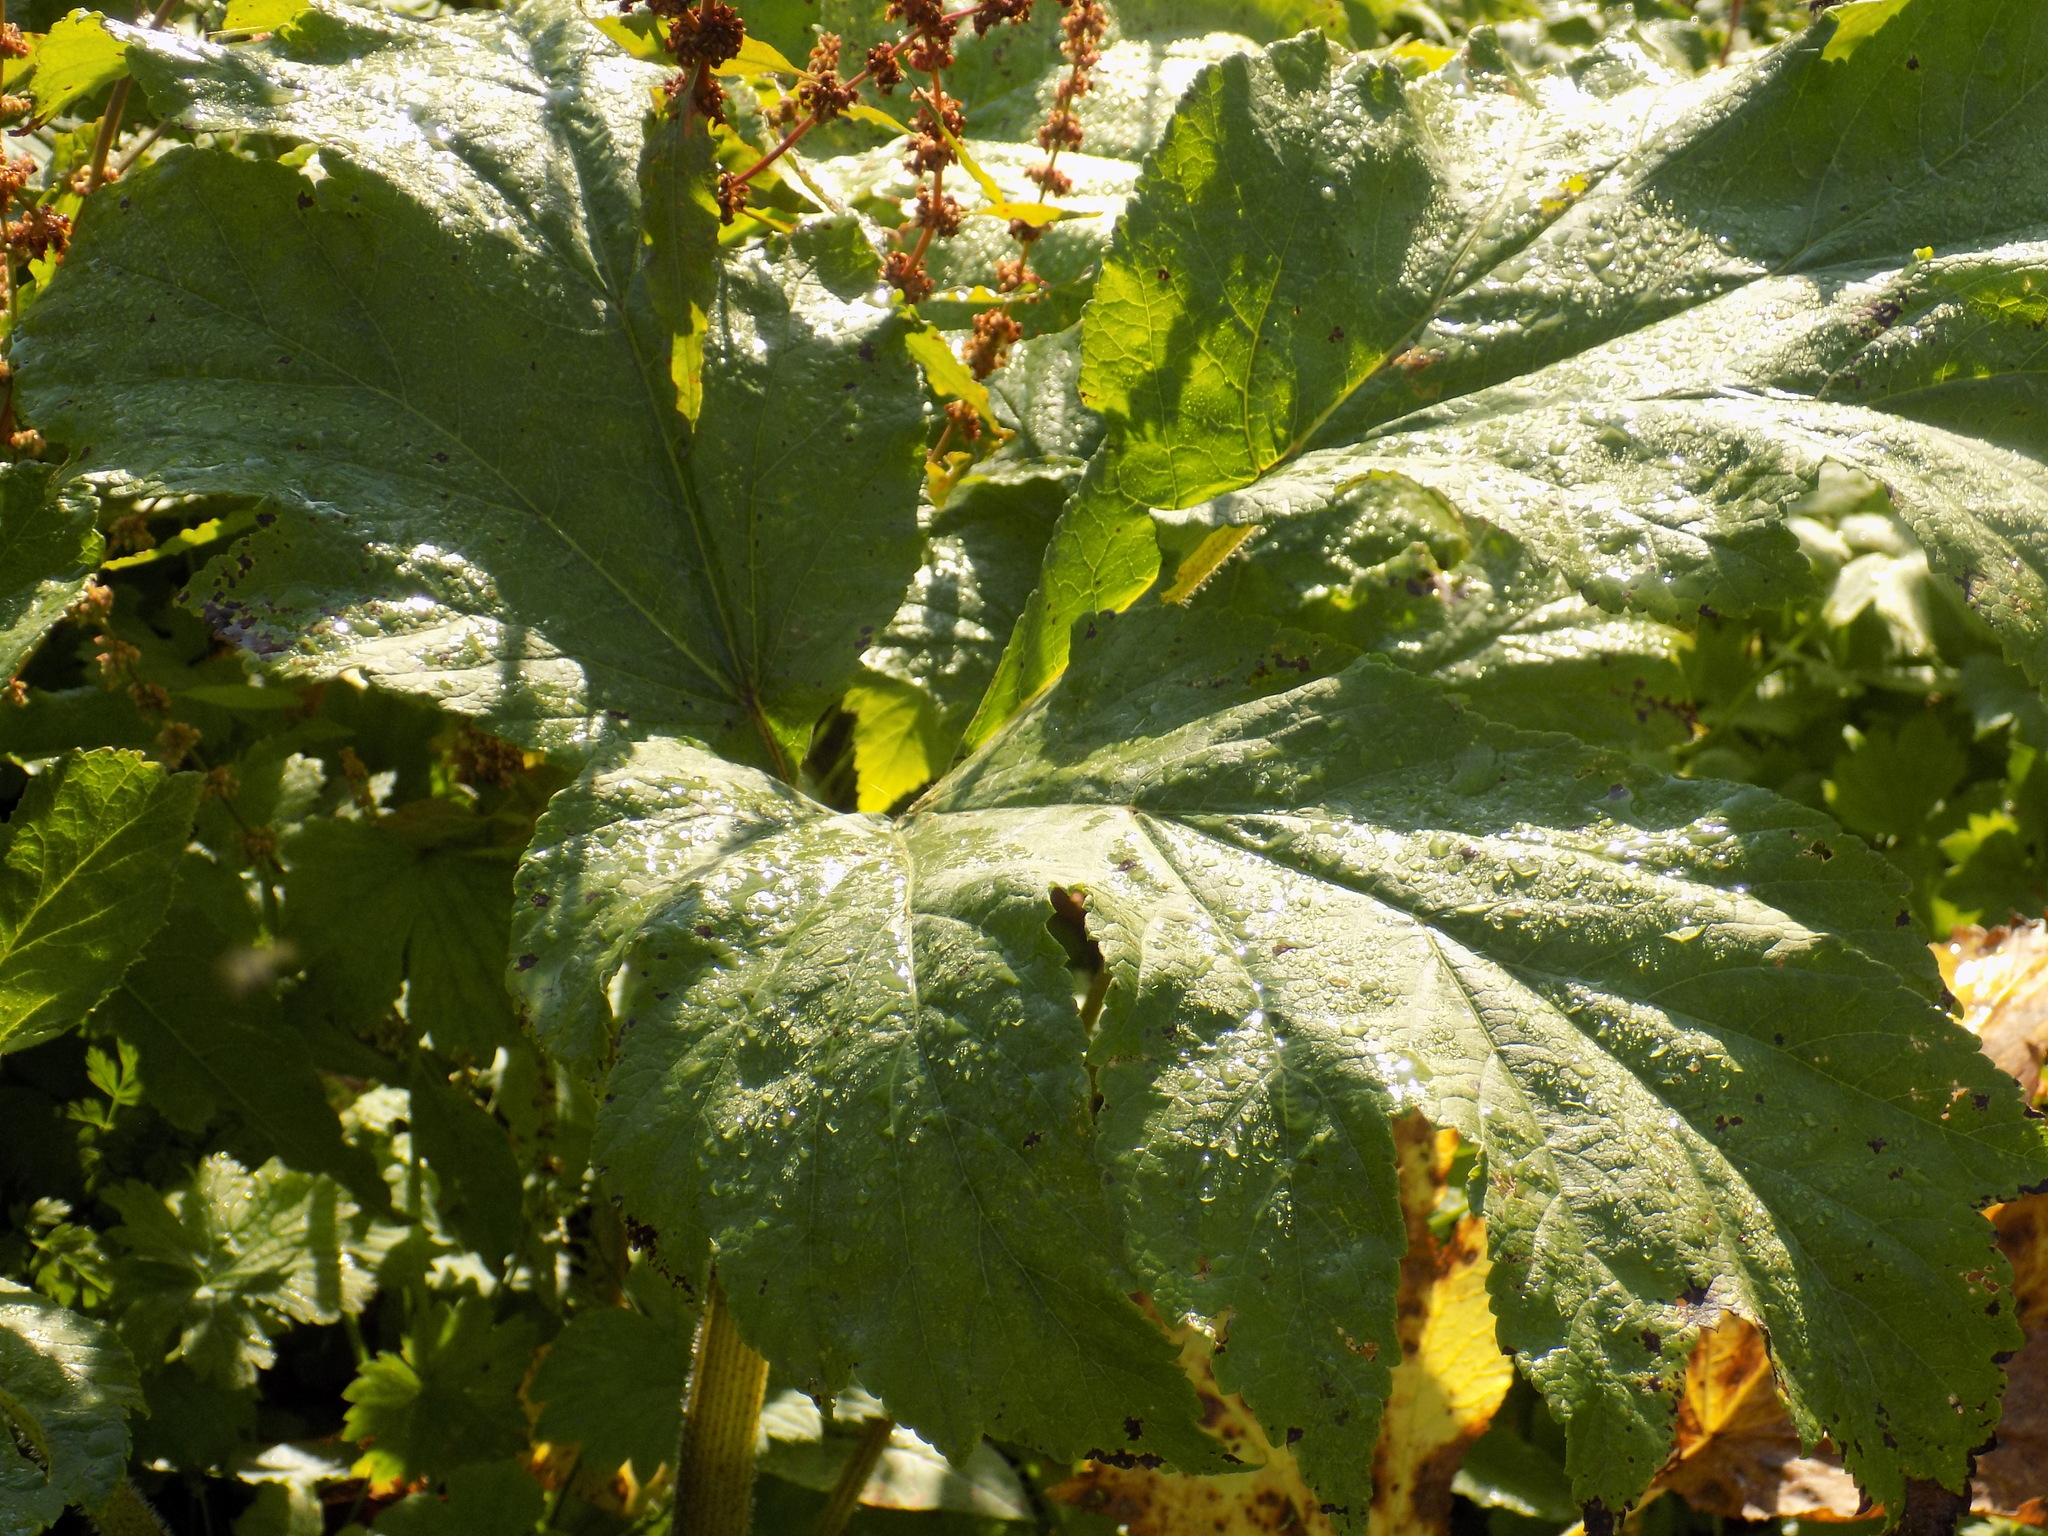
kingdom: Plantae
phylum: Tracheophyta
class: Magnoliopsida
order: Apiales
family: Apiaceae
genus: Heracleum
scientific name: Heracleum dissectum
